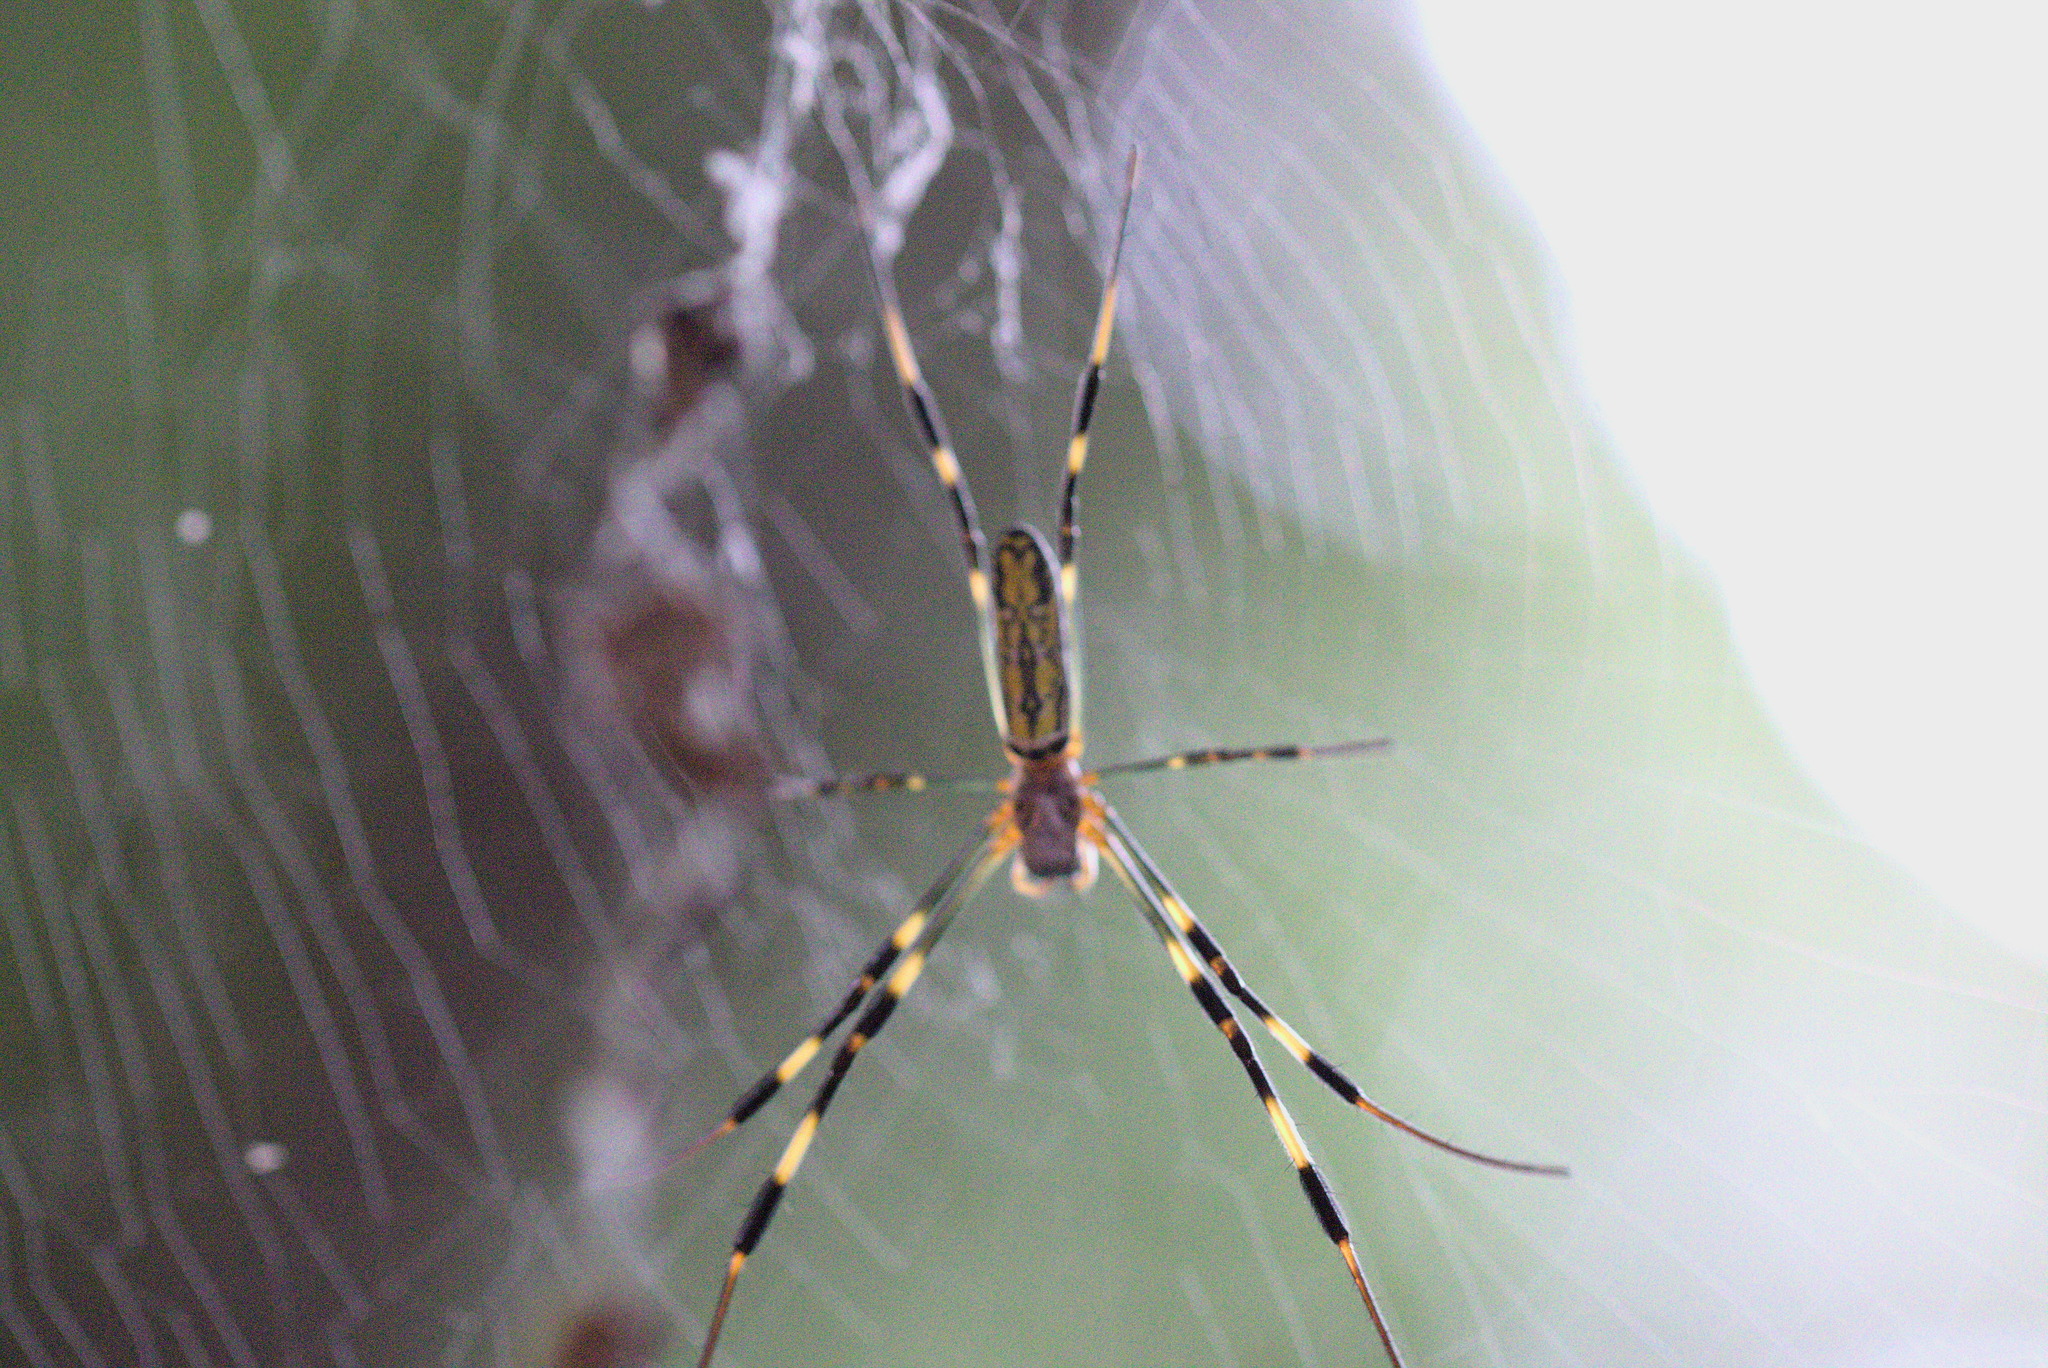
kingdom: Animalia
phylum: Arthropoda
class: Arachnida
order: Araneae
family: Araneidae
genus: Trichonephila
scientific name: Trichonephila clavata
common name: Jorō spider
